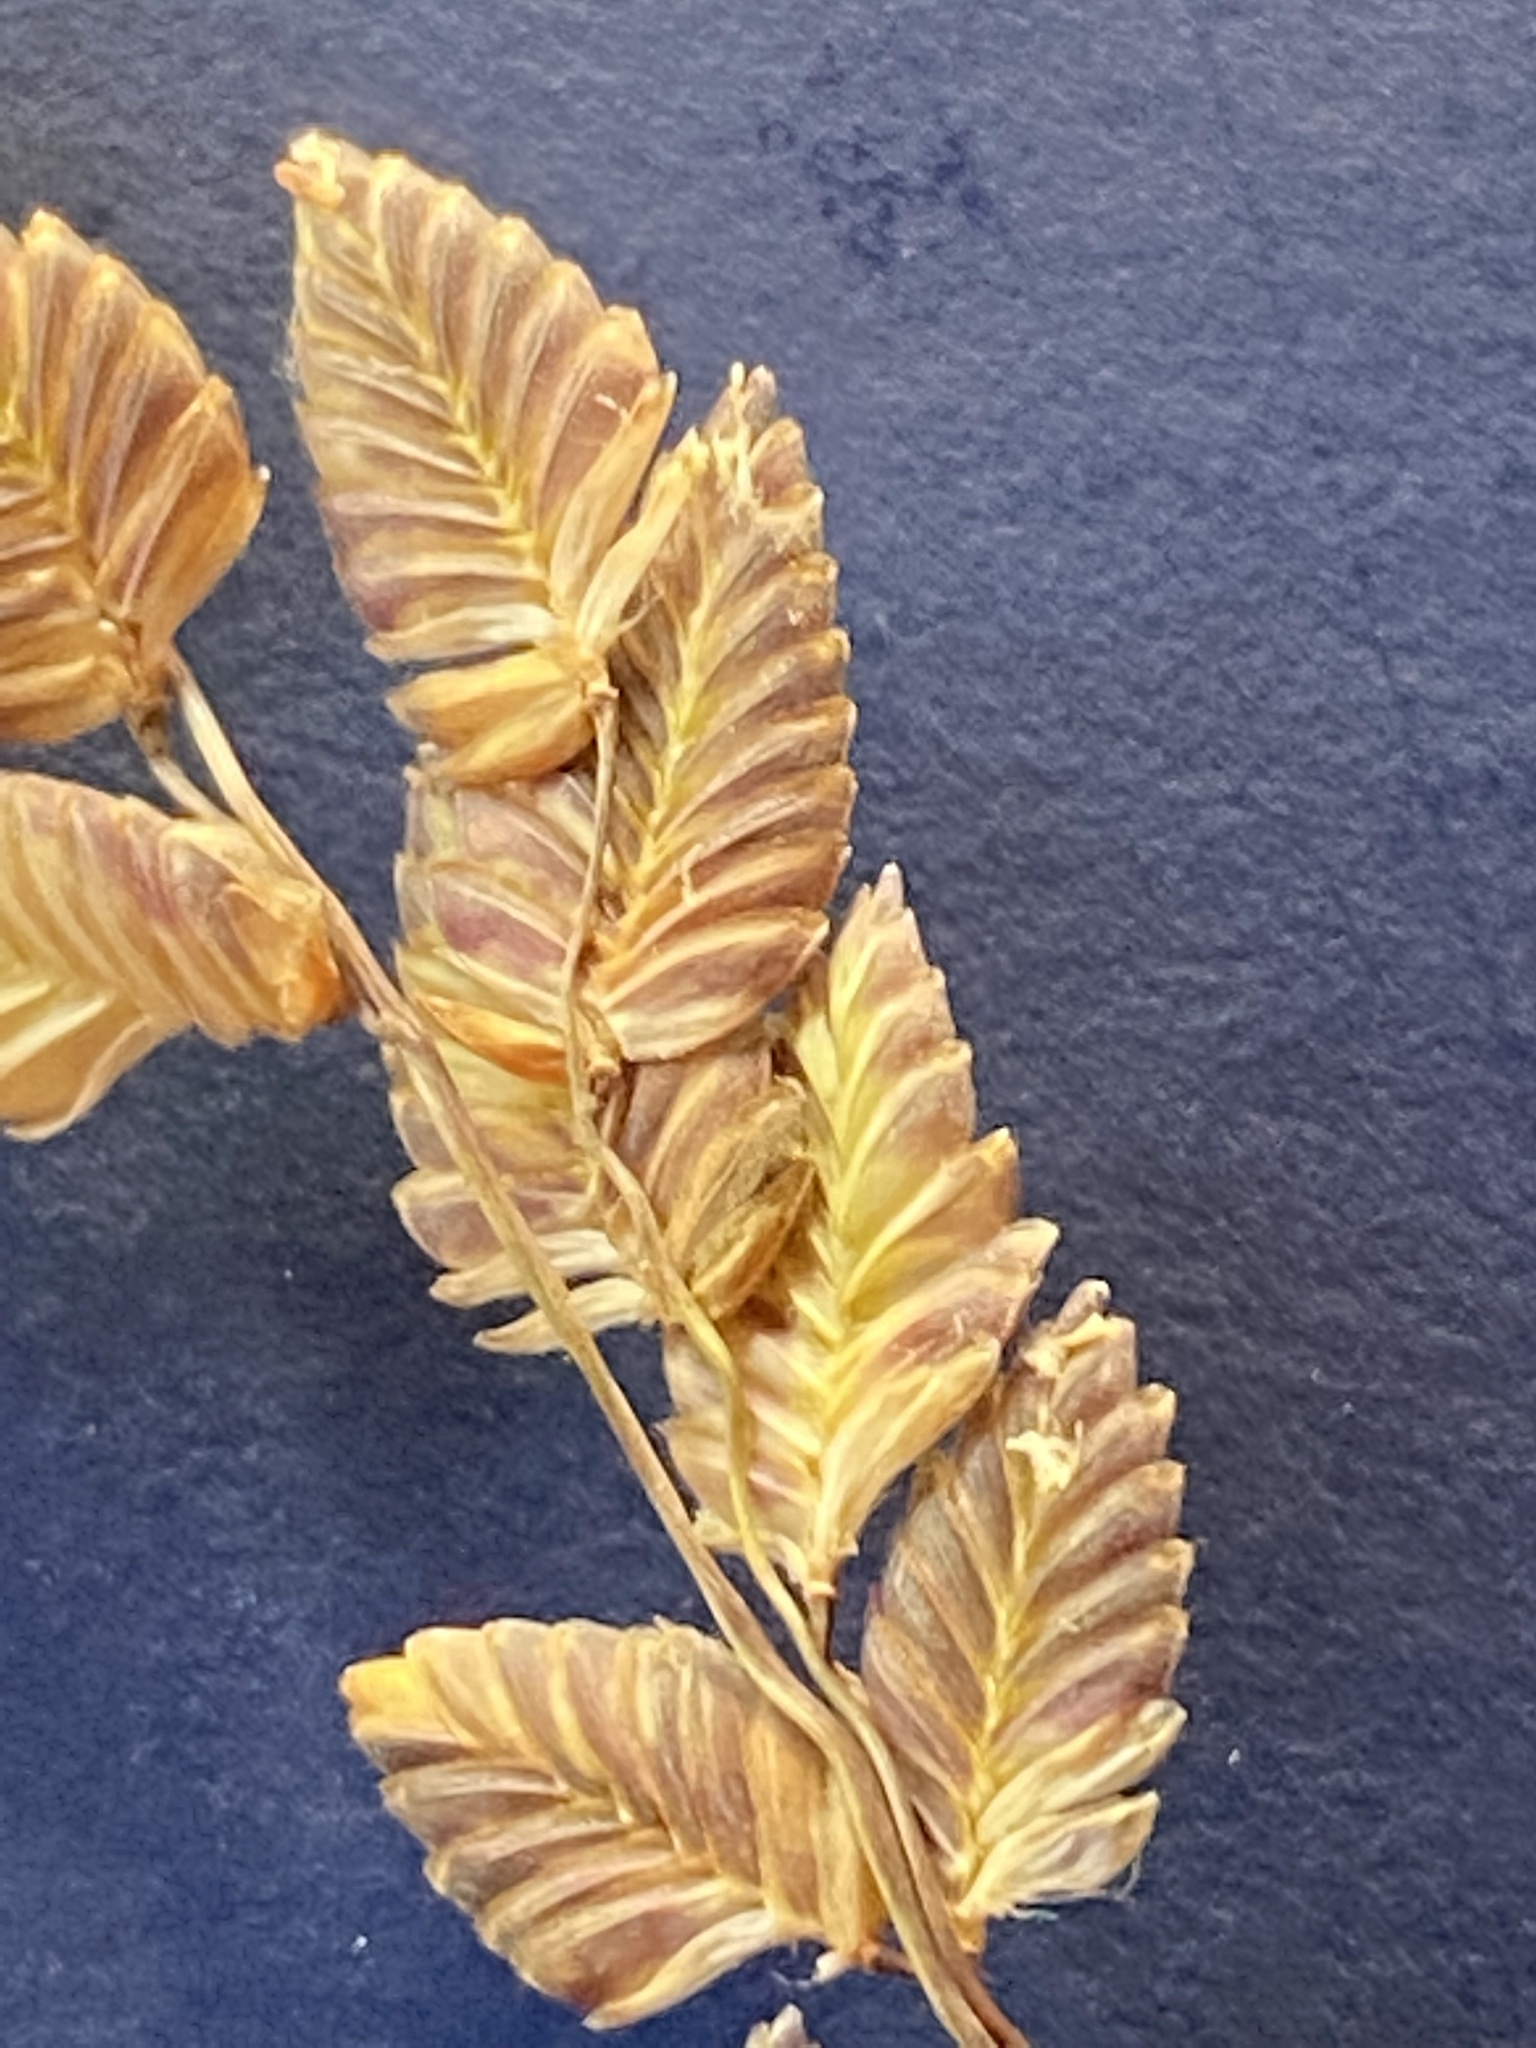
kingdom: Plantae
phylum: Tracheophyta
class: Liliopsida
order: Poales
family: Poaceae
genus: Eragrostis
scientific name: Eragrostis capensis
